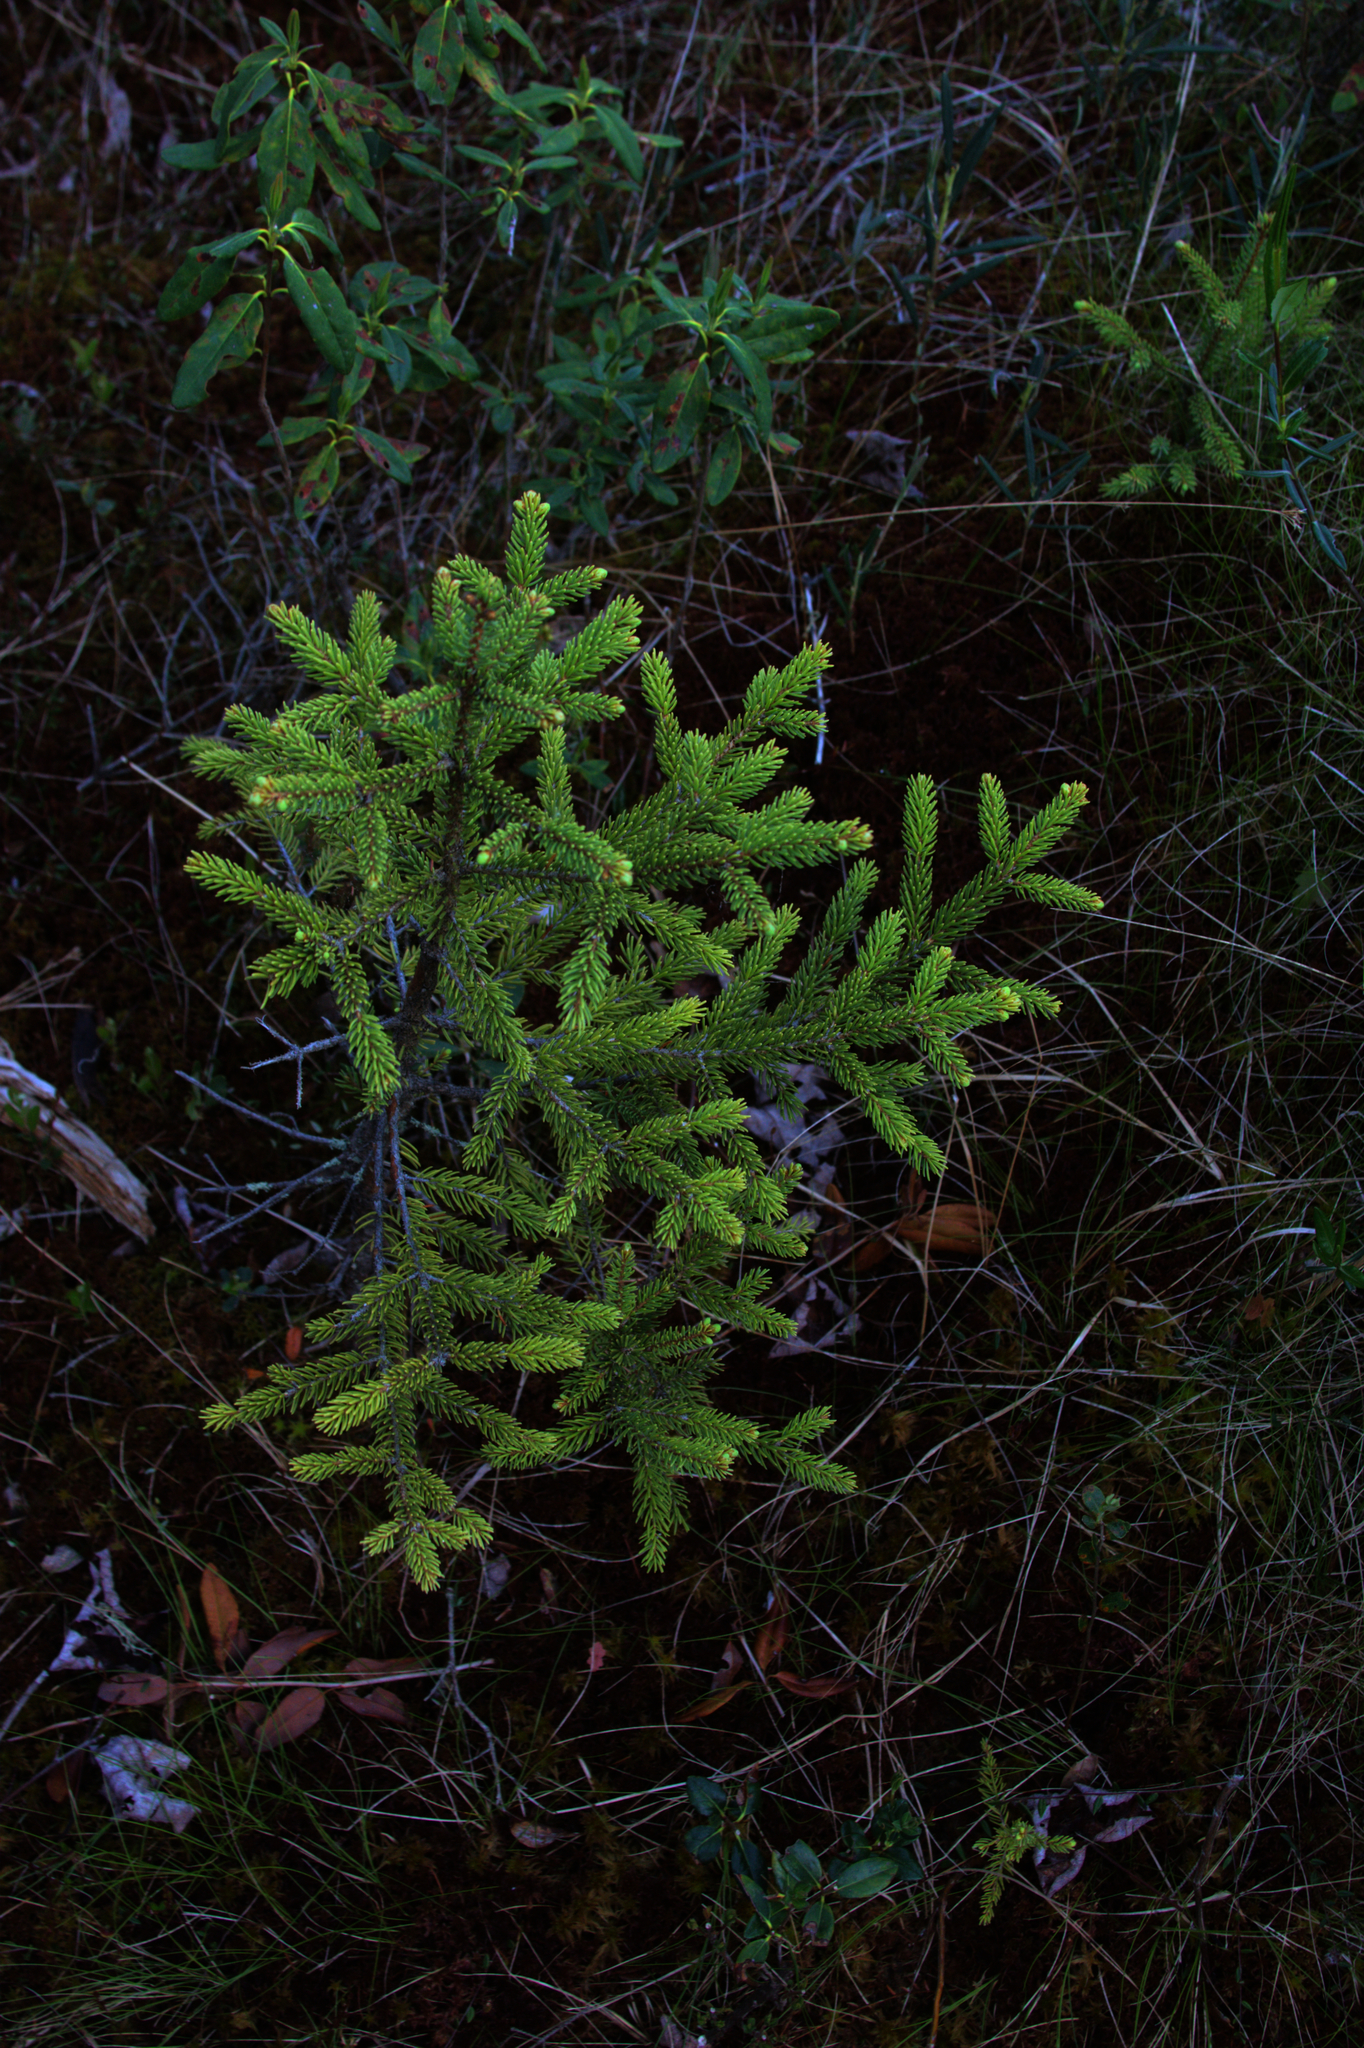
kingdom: Plantae
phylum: Tracheophyta
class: Pinopsida
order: Pinales
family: Pinaceae
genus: Picea
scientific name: Picea mariana
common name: Black spruce
